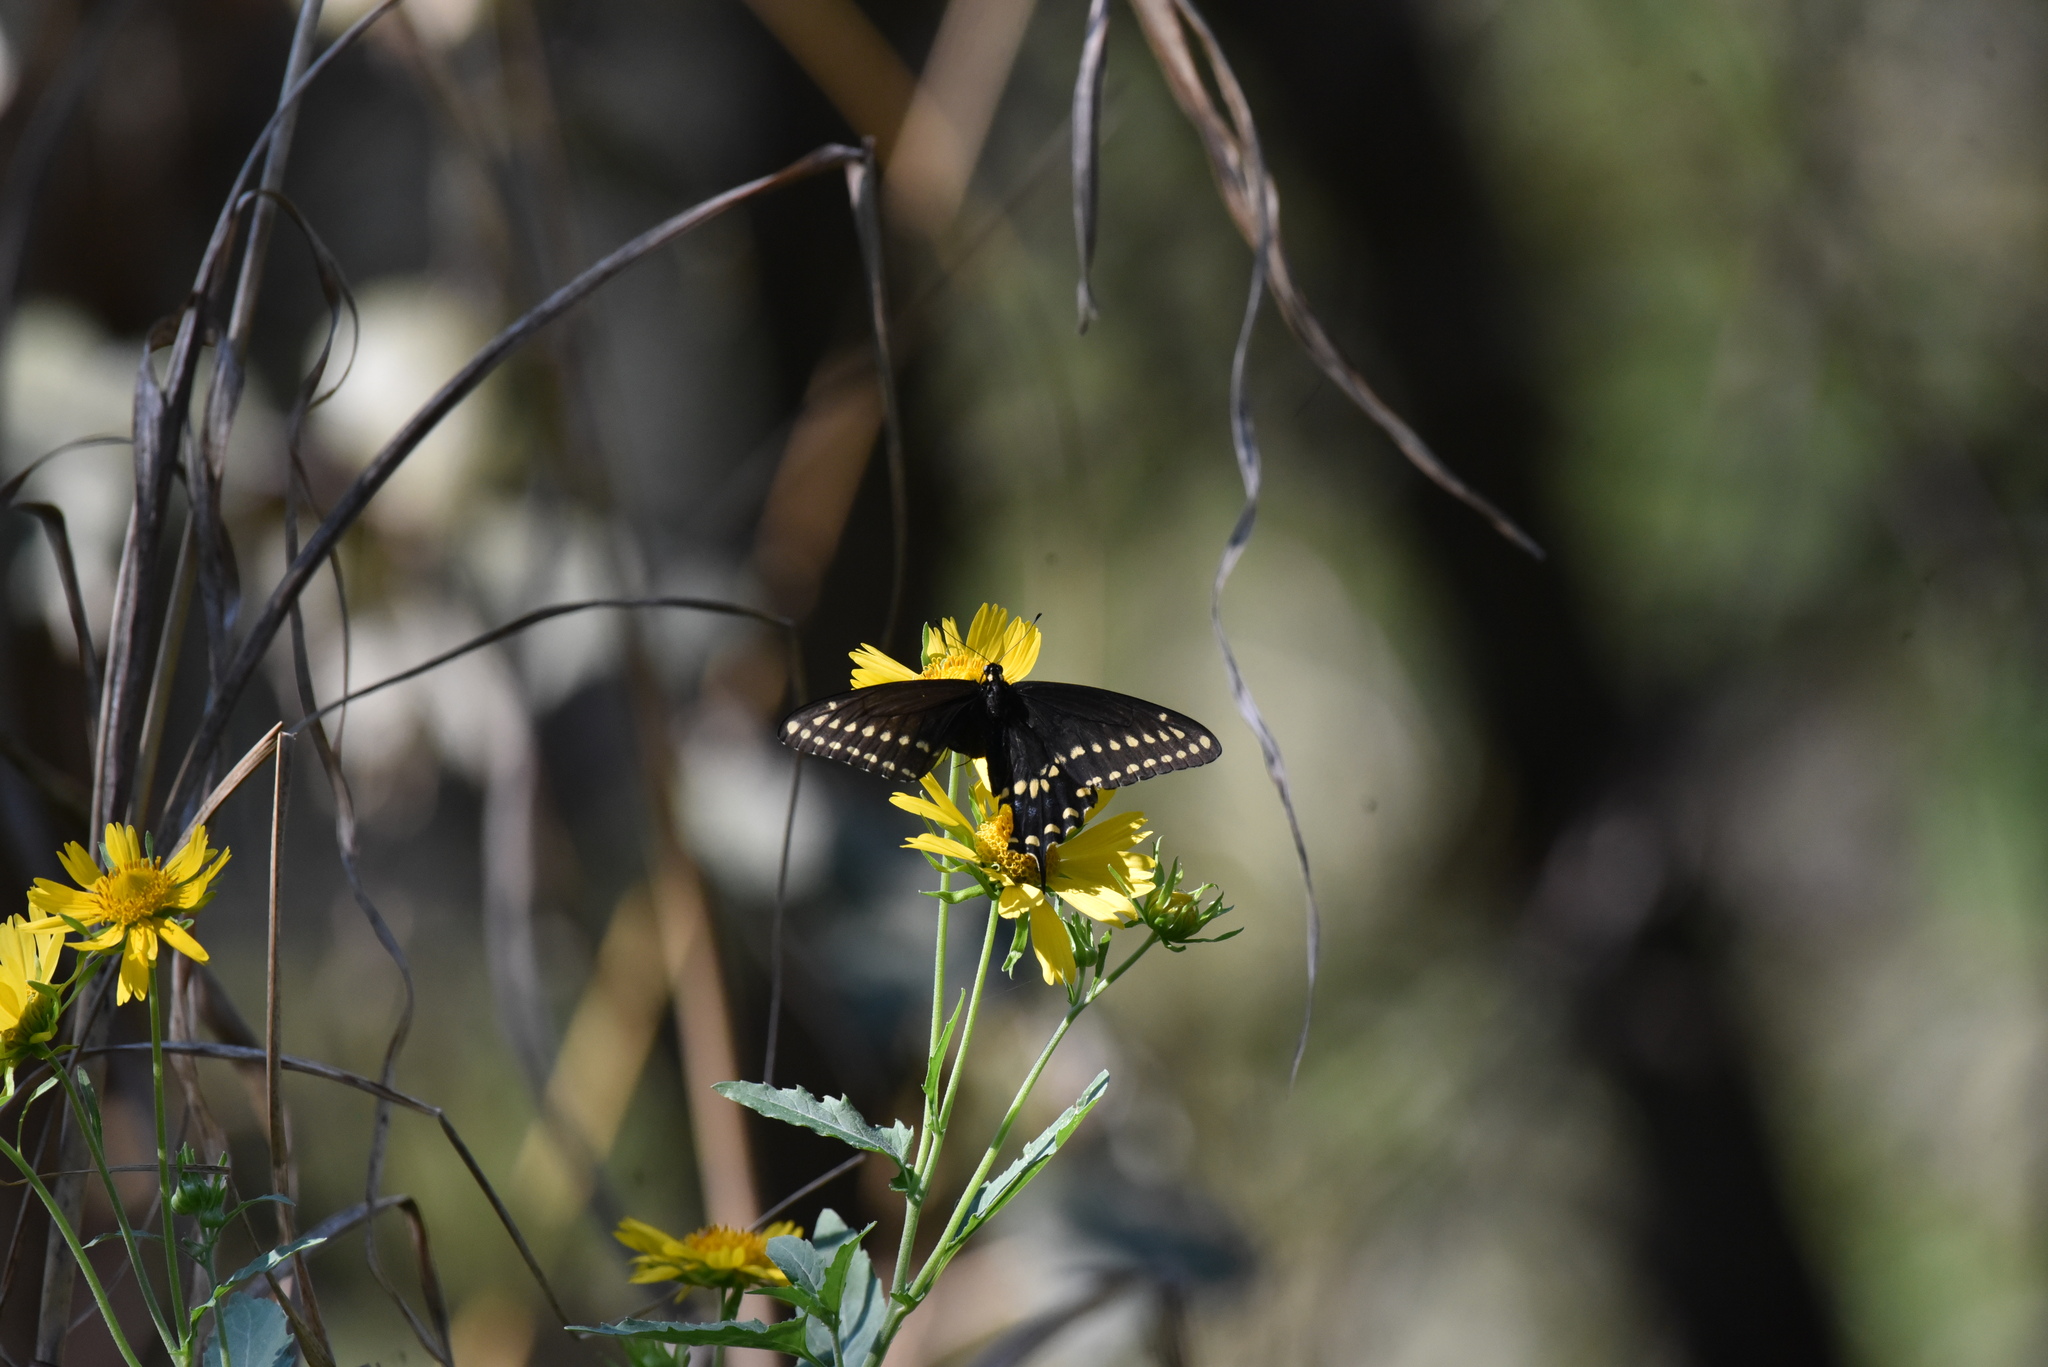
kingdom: Animalia
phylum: Arthropoda
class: Insecta
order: Lepidoptera
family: Papilionidae
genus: Papilio
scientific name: Papilio polyxenes
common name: Black swallowtail
